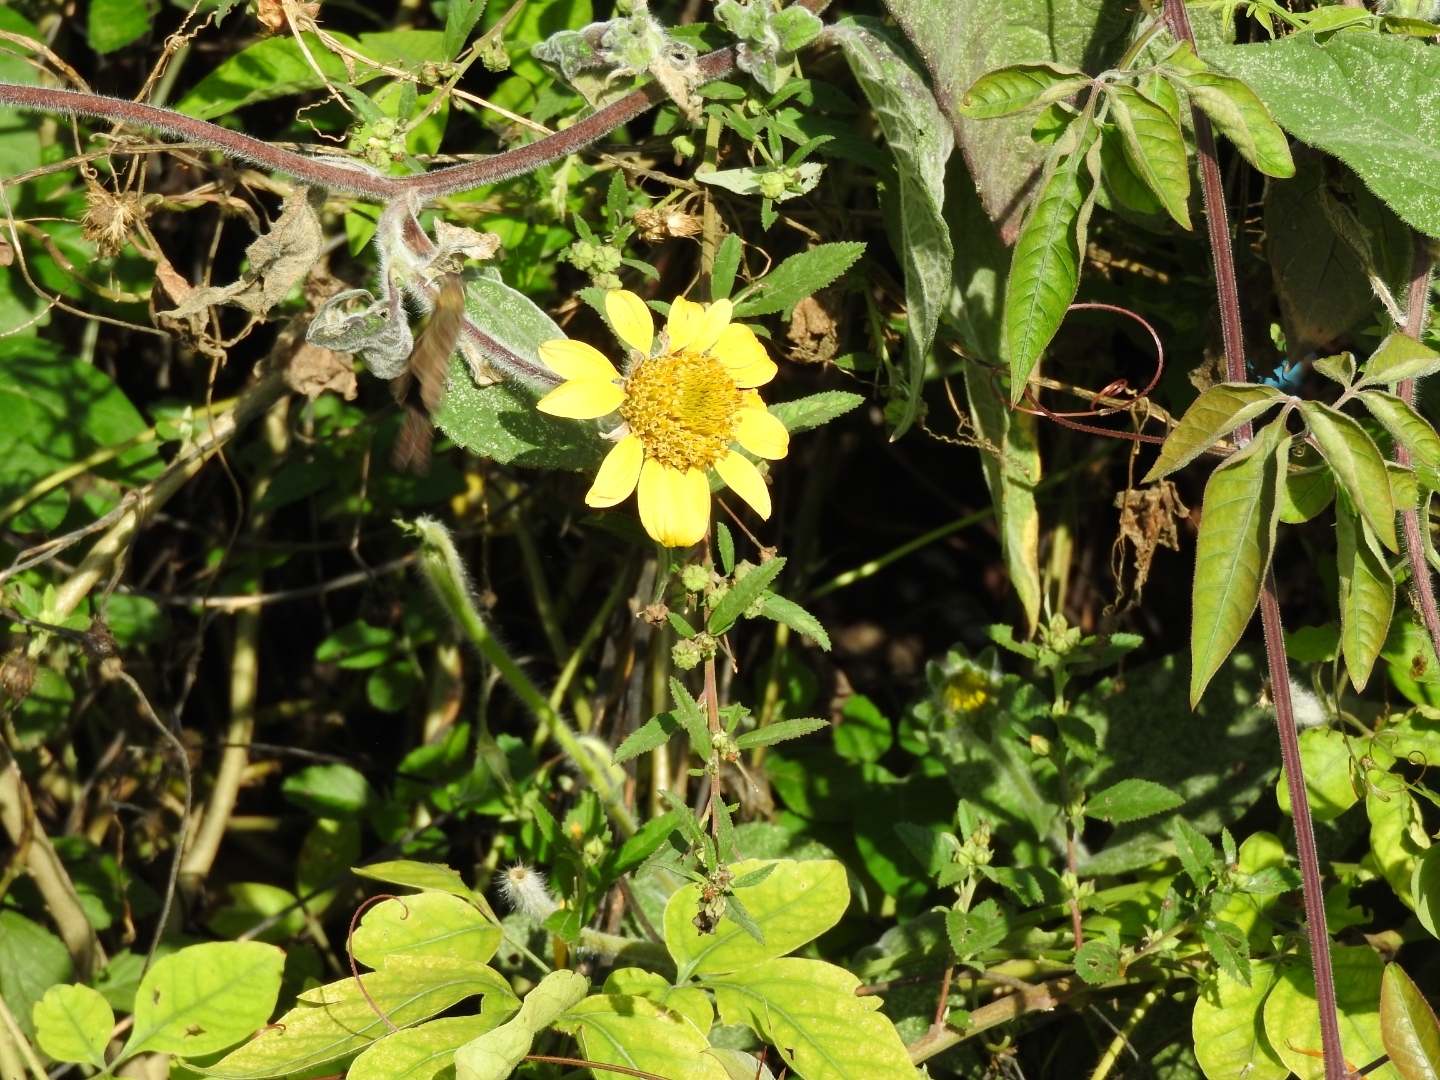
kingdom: Plantae
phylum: Tracheophyta
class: Magnoliopsida
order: Asterales
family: Asteraceae
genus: Tithonia
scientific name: Tithonia tubaeformis
